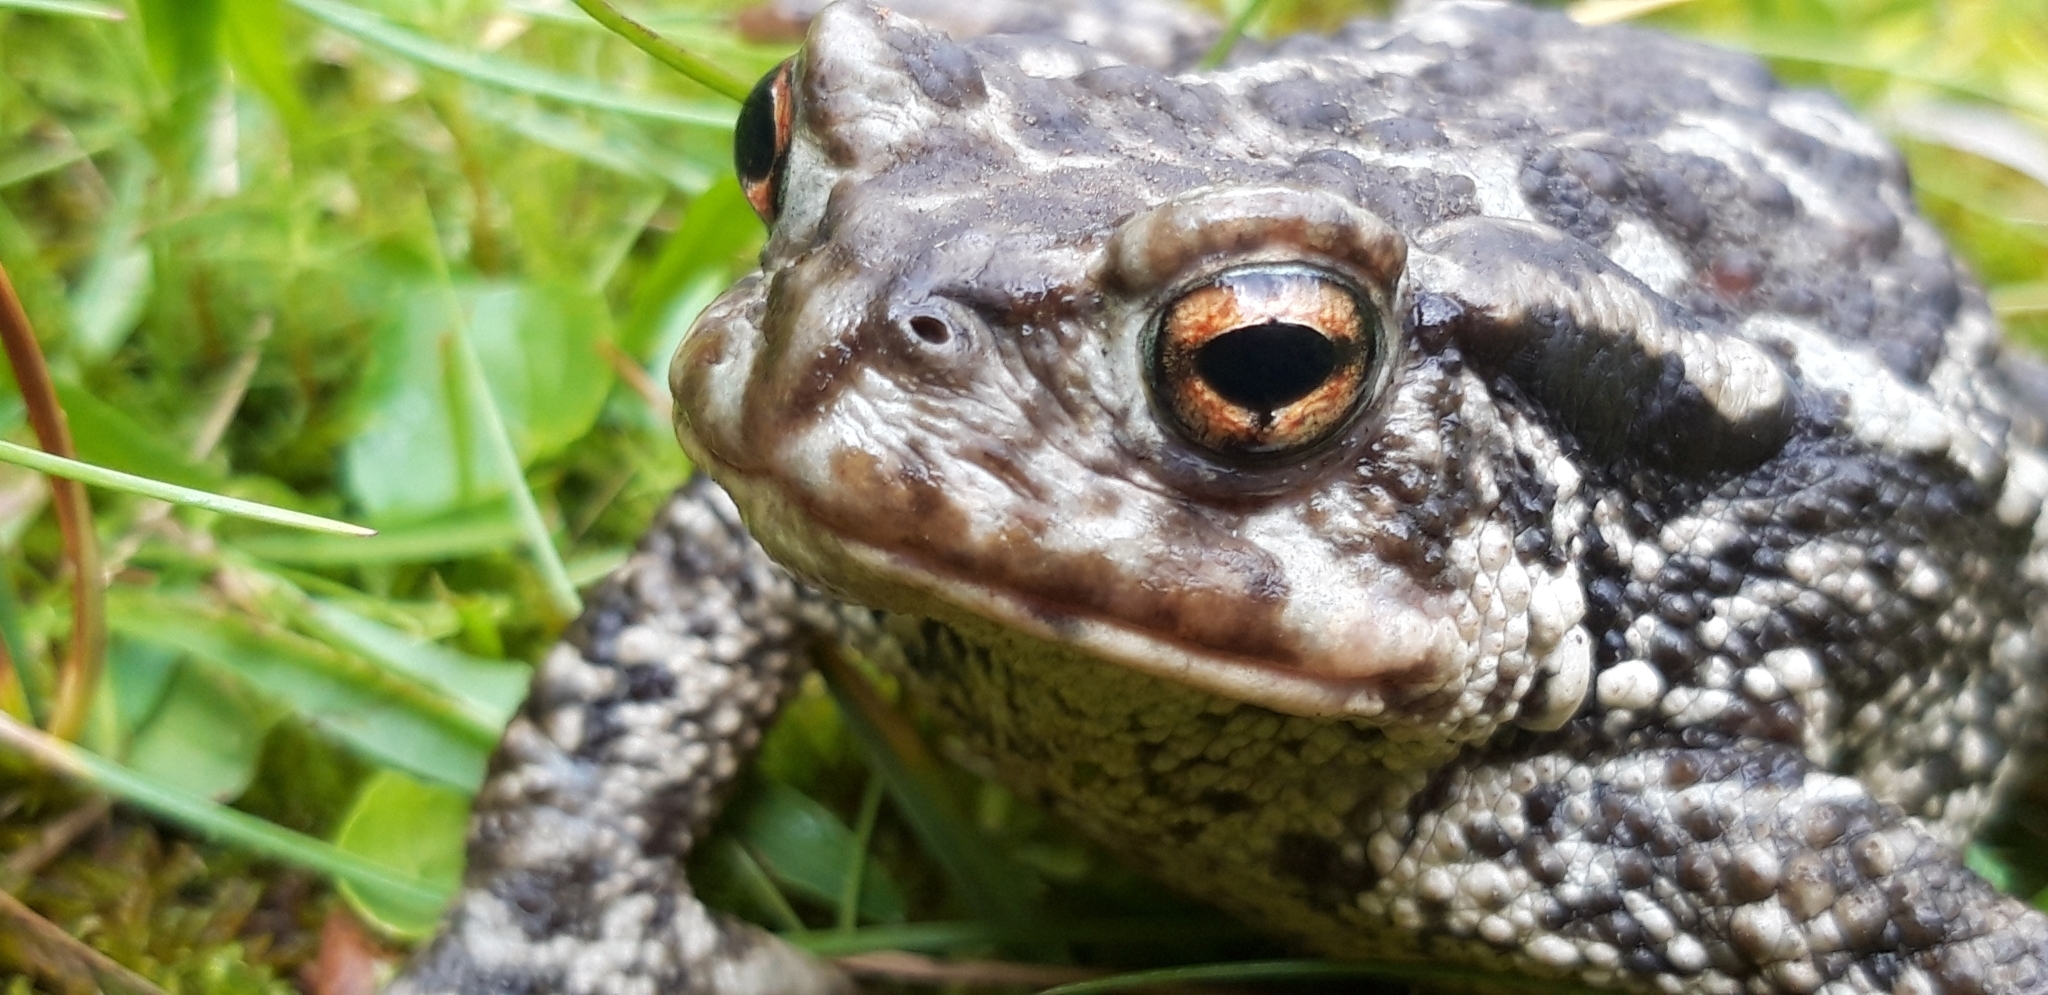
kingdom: Animalia
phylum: Chordata
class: Amphibia
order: Anura
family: Bufonidae
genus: Bufo
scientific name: Bufo spinosus
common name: Western common toad
